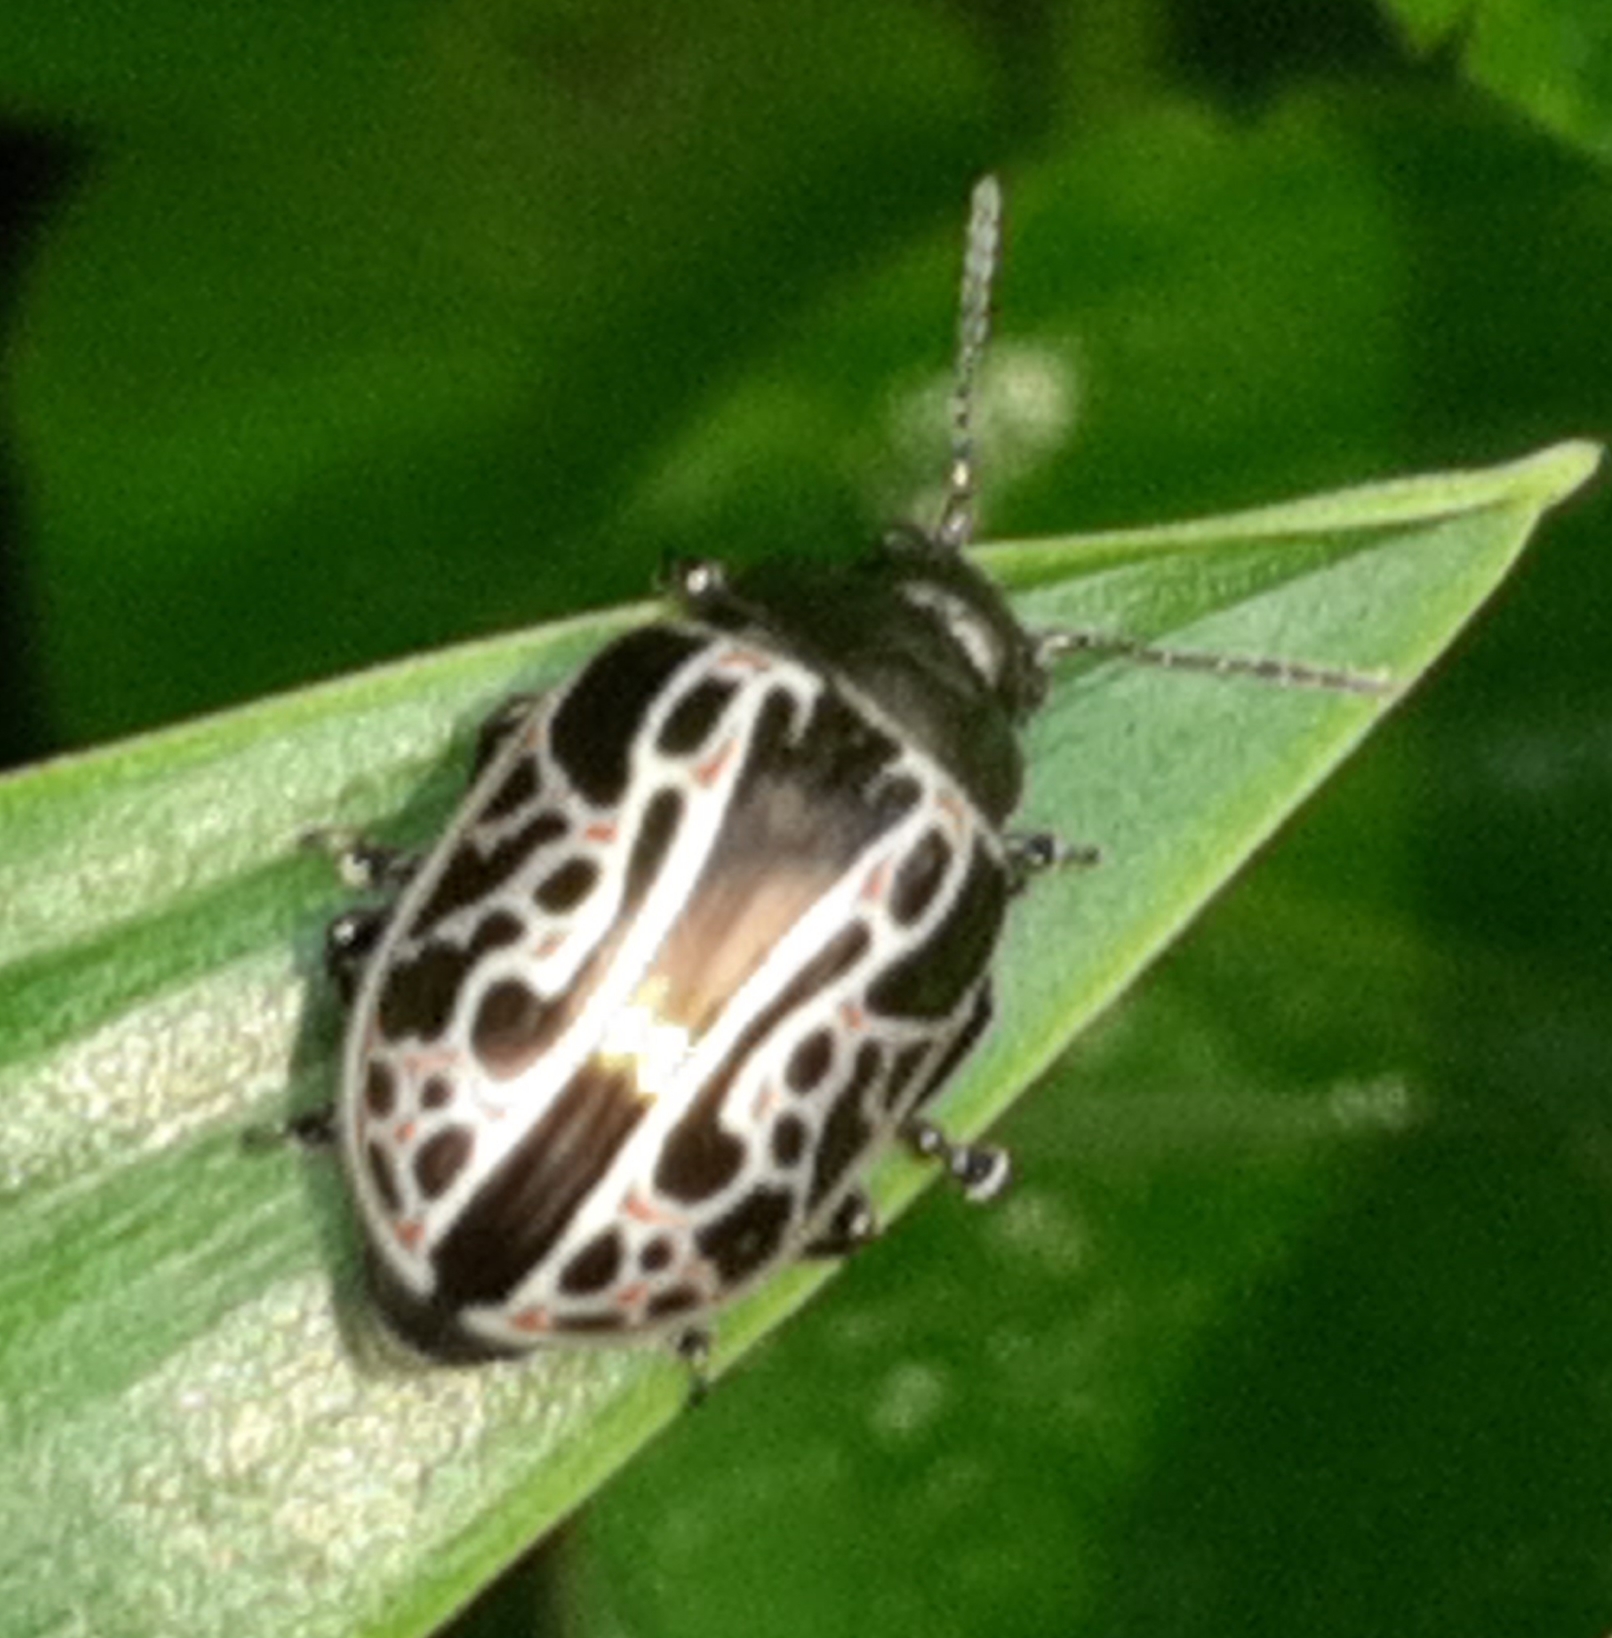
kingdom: Animalia
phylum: Arthropoda
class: Insecta
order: Coleoptera
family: Chrysomelidae
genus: Calligrapha
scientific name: Calligrapha elegantula
